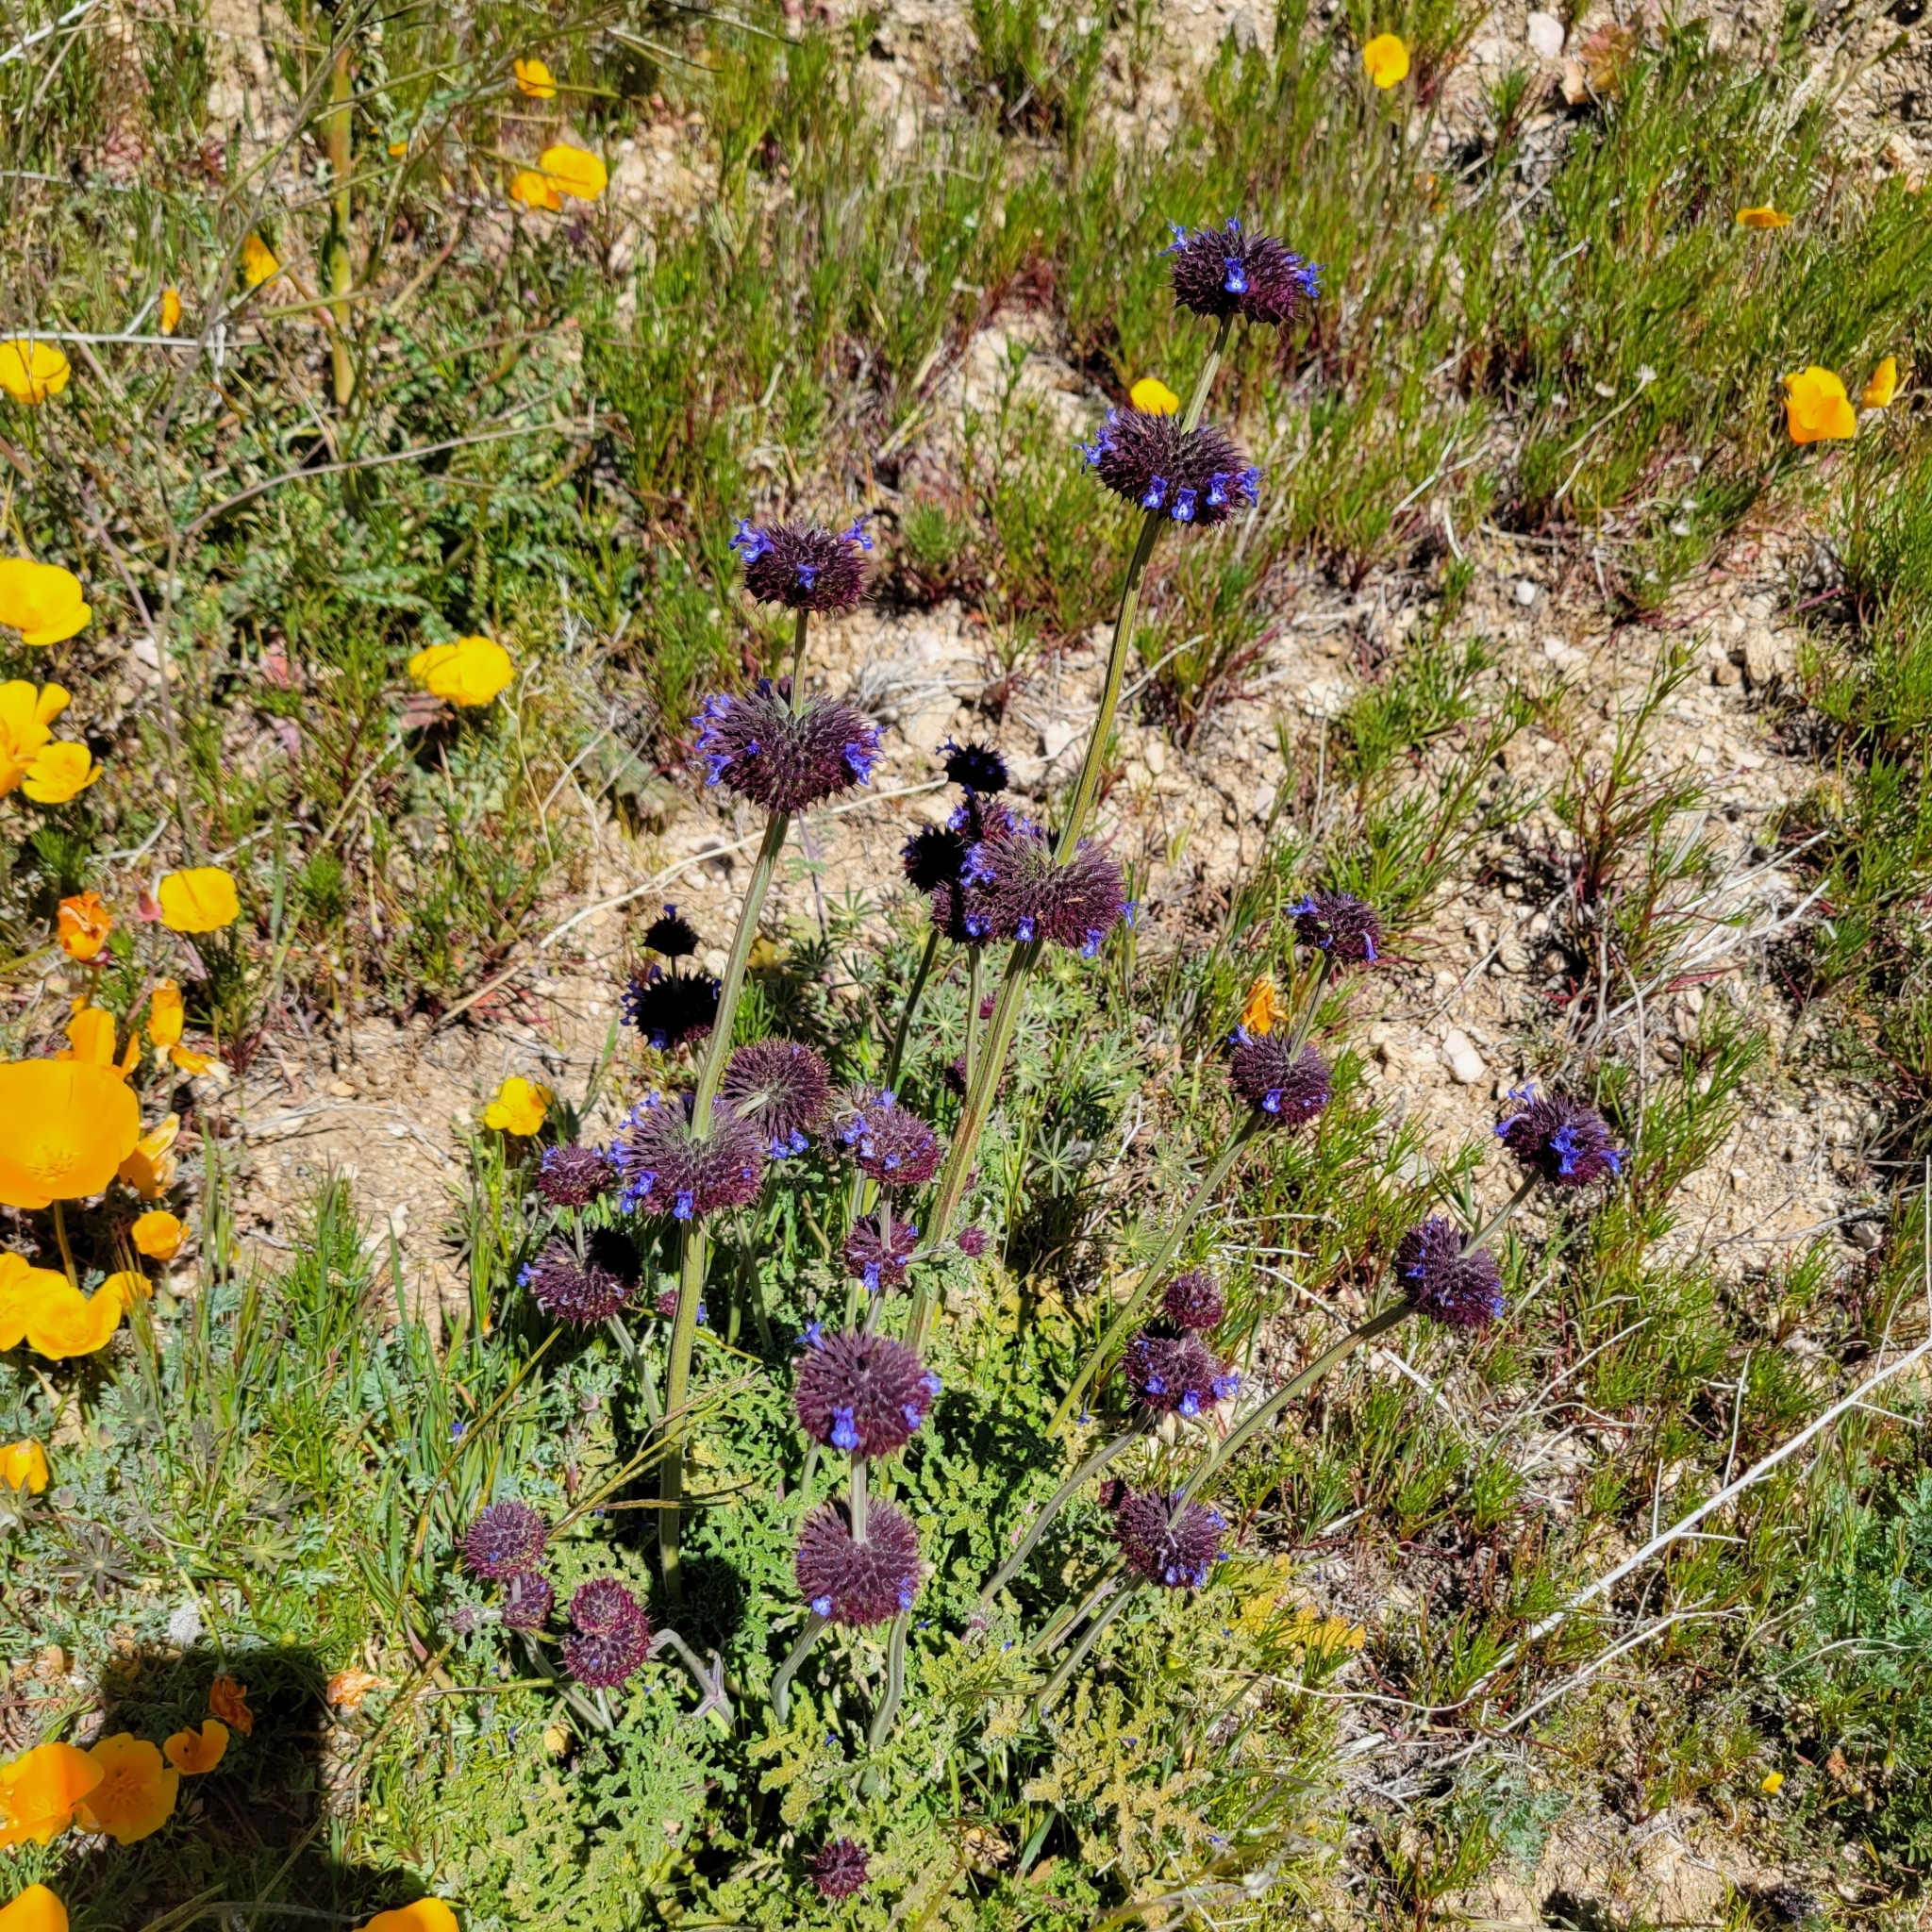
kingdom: Plantae
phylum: Tracheophyta
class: Magnoliopsida
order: Lamiales
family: Lamiaceae
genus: Salvia
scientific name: Salvia columbariae
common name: Chia
